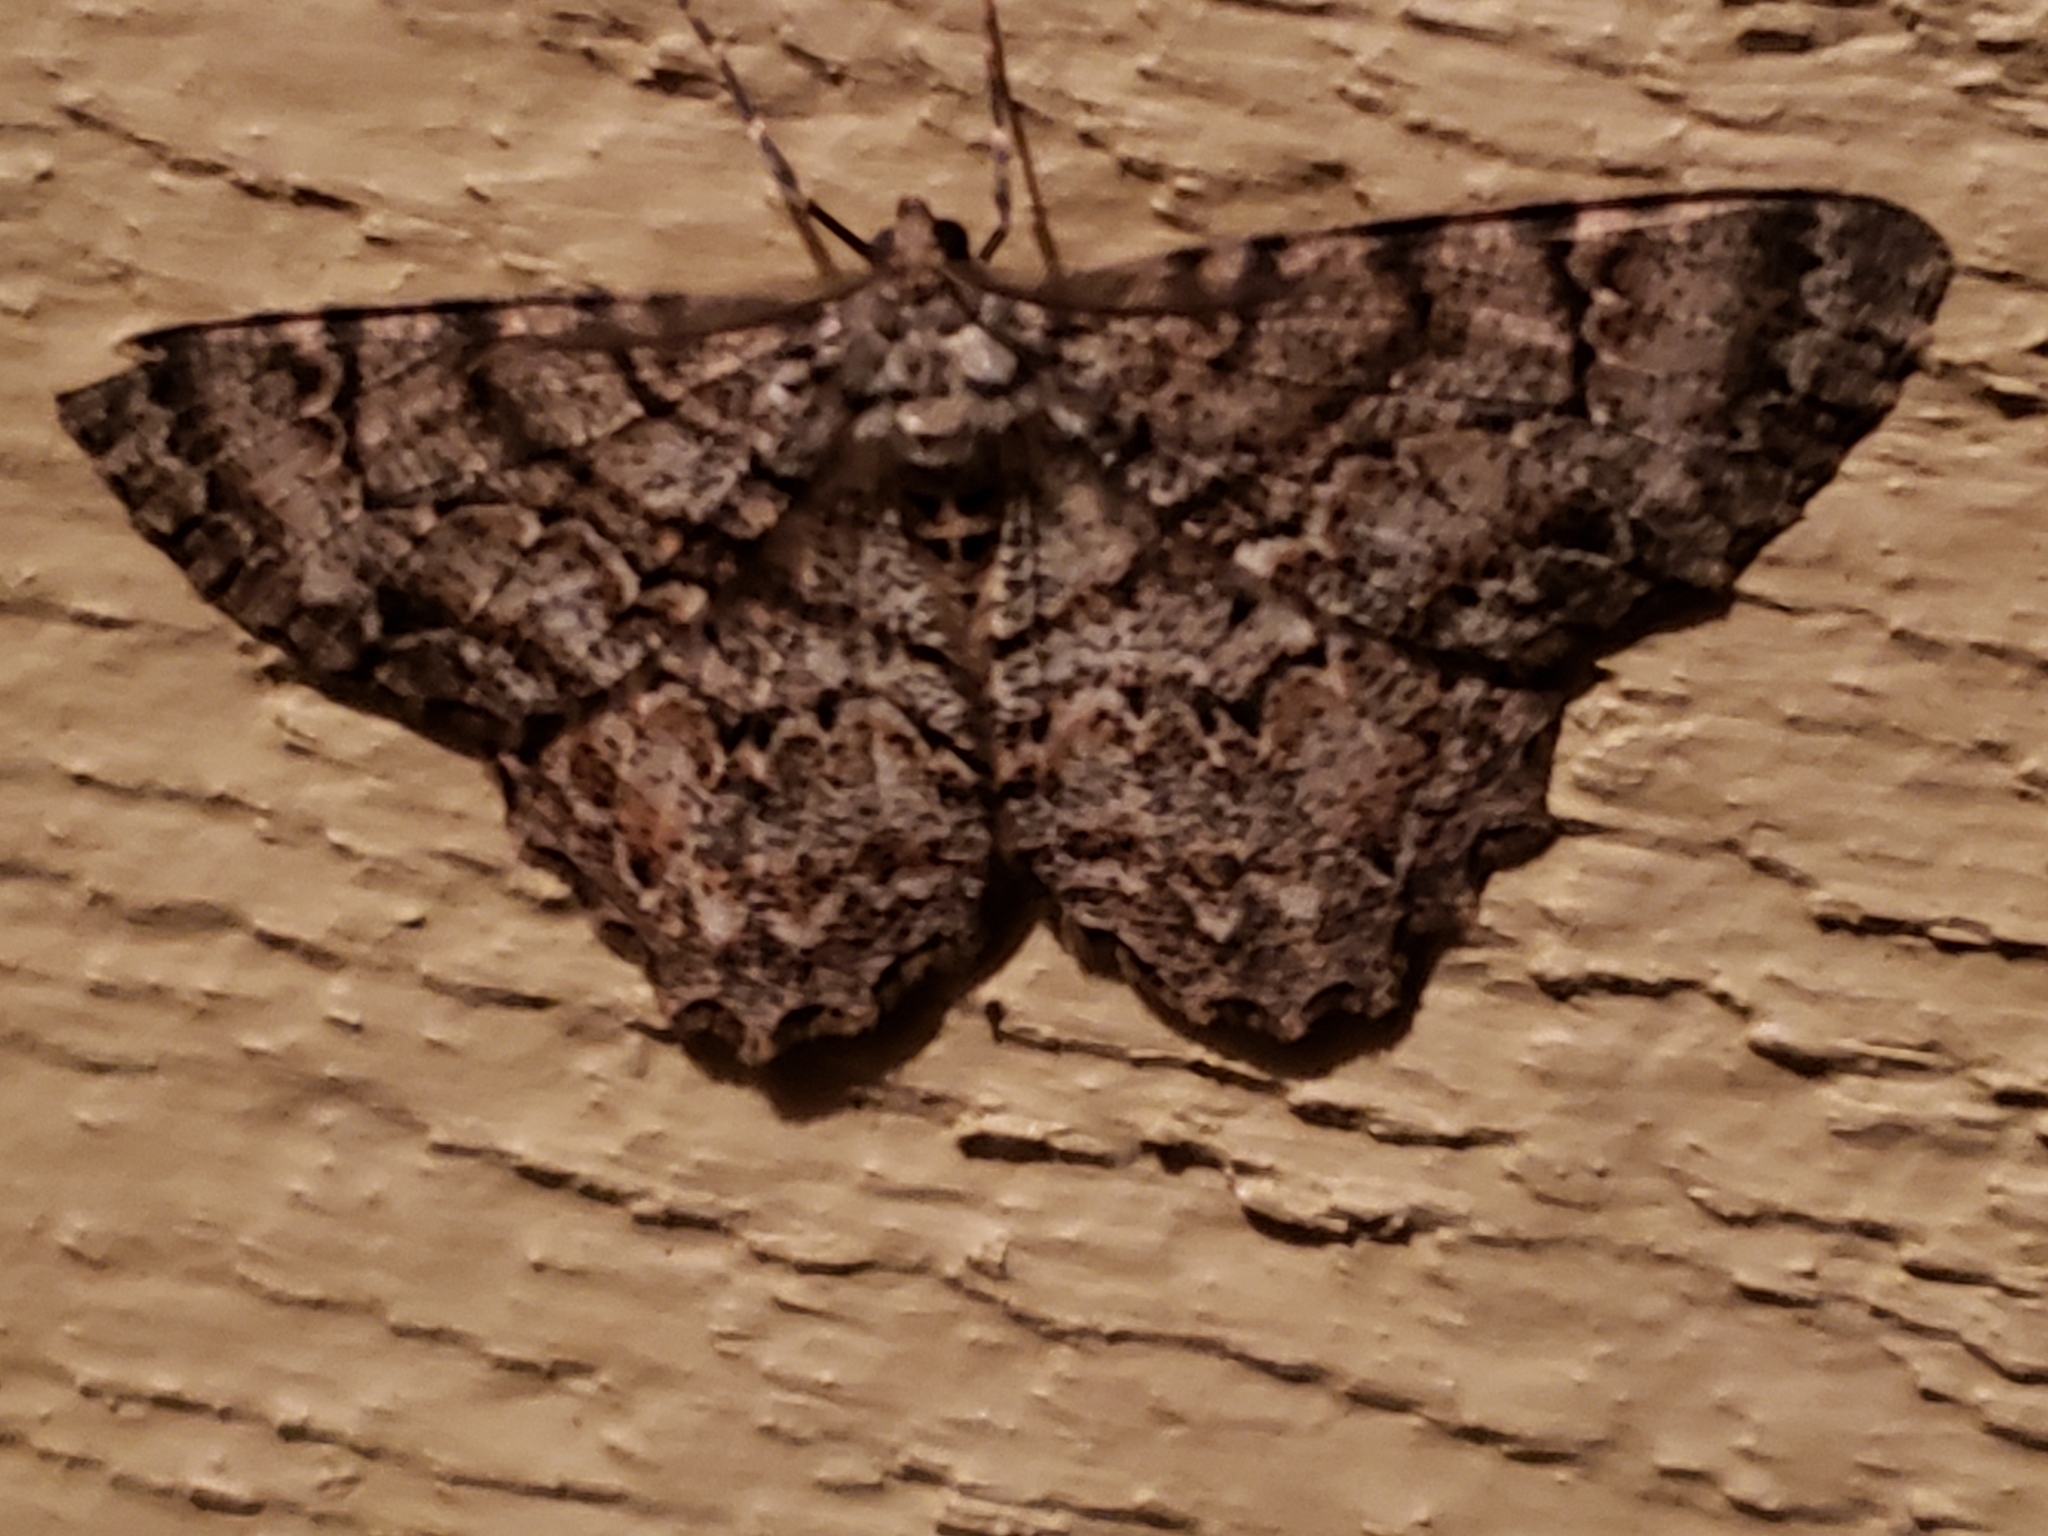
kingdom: Animalia
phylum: Arthropoda
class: Insecta
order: Lepidoptera
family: Geometridae
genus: Epimecis
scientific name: Epimecis hortaria
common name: Tulip-tree beauty
